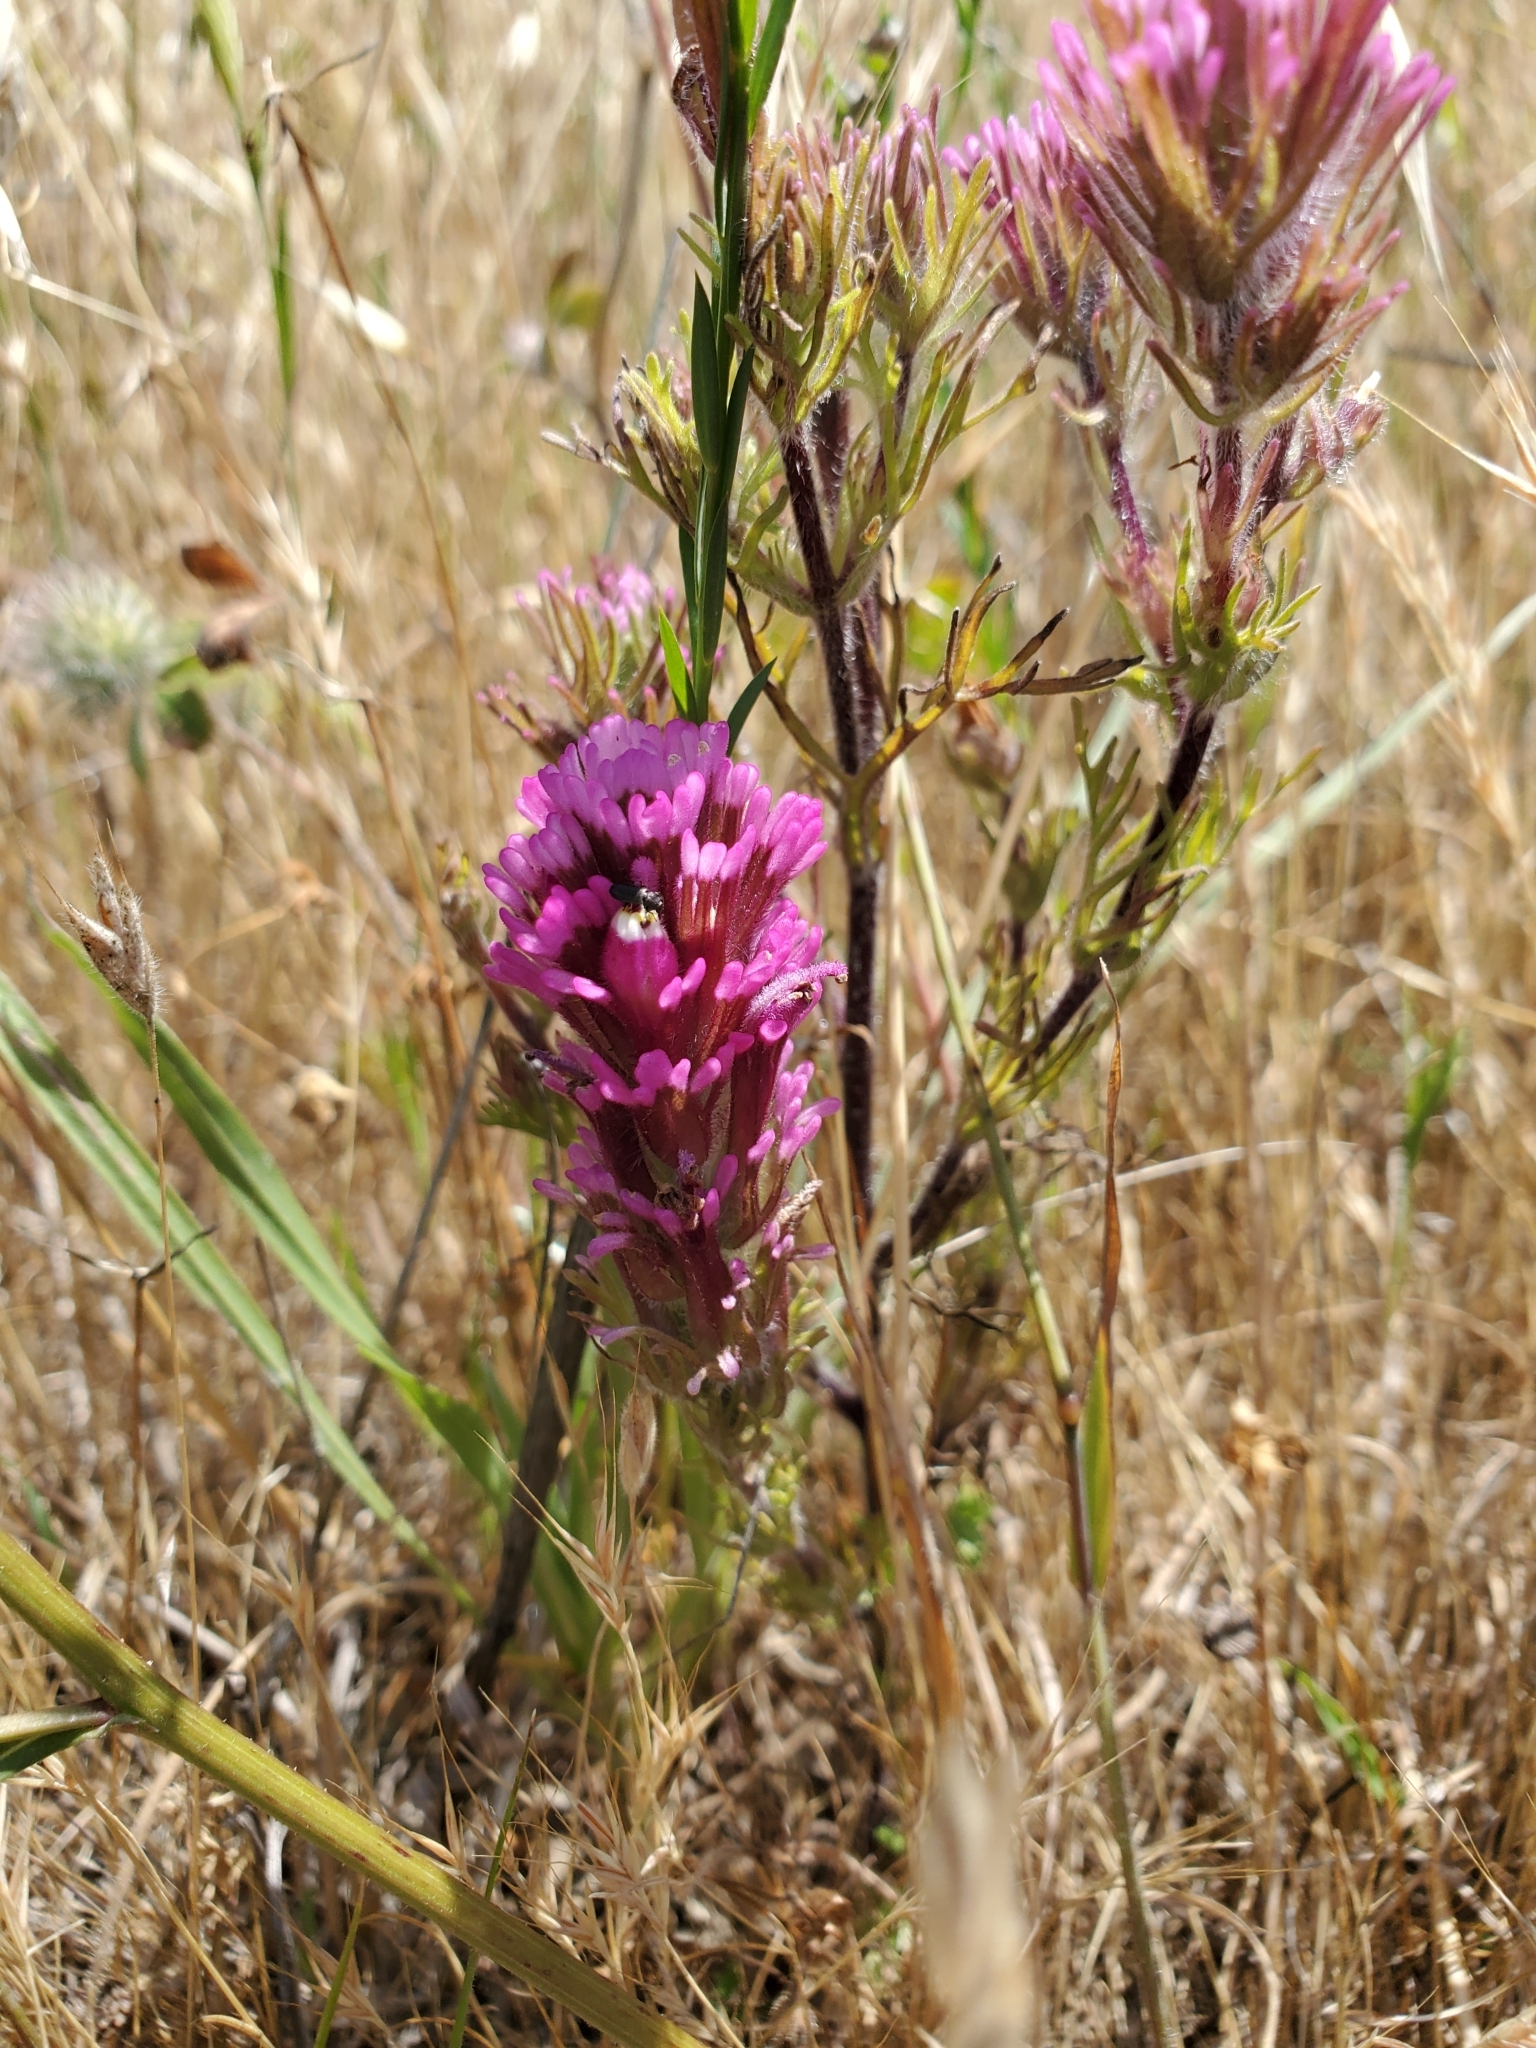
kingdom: Plantae
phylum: Tracheophyta
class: Magnoliopsida
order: Lamiales
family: Orobanchaceae
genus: Castilleja
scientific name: Castilleja exserta
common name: Purple owl-clover
